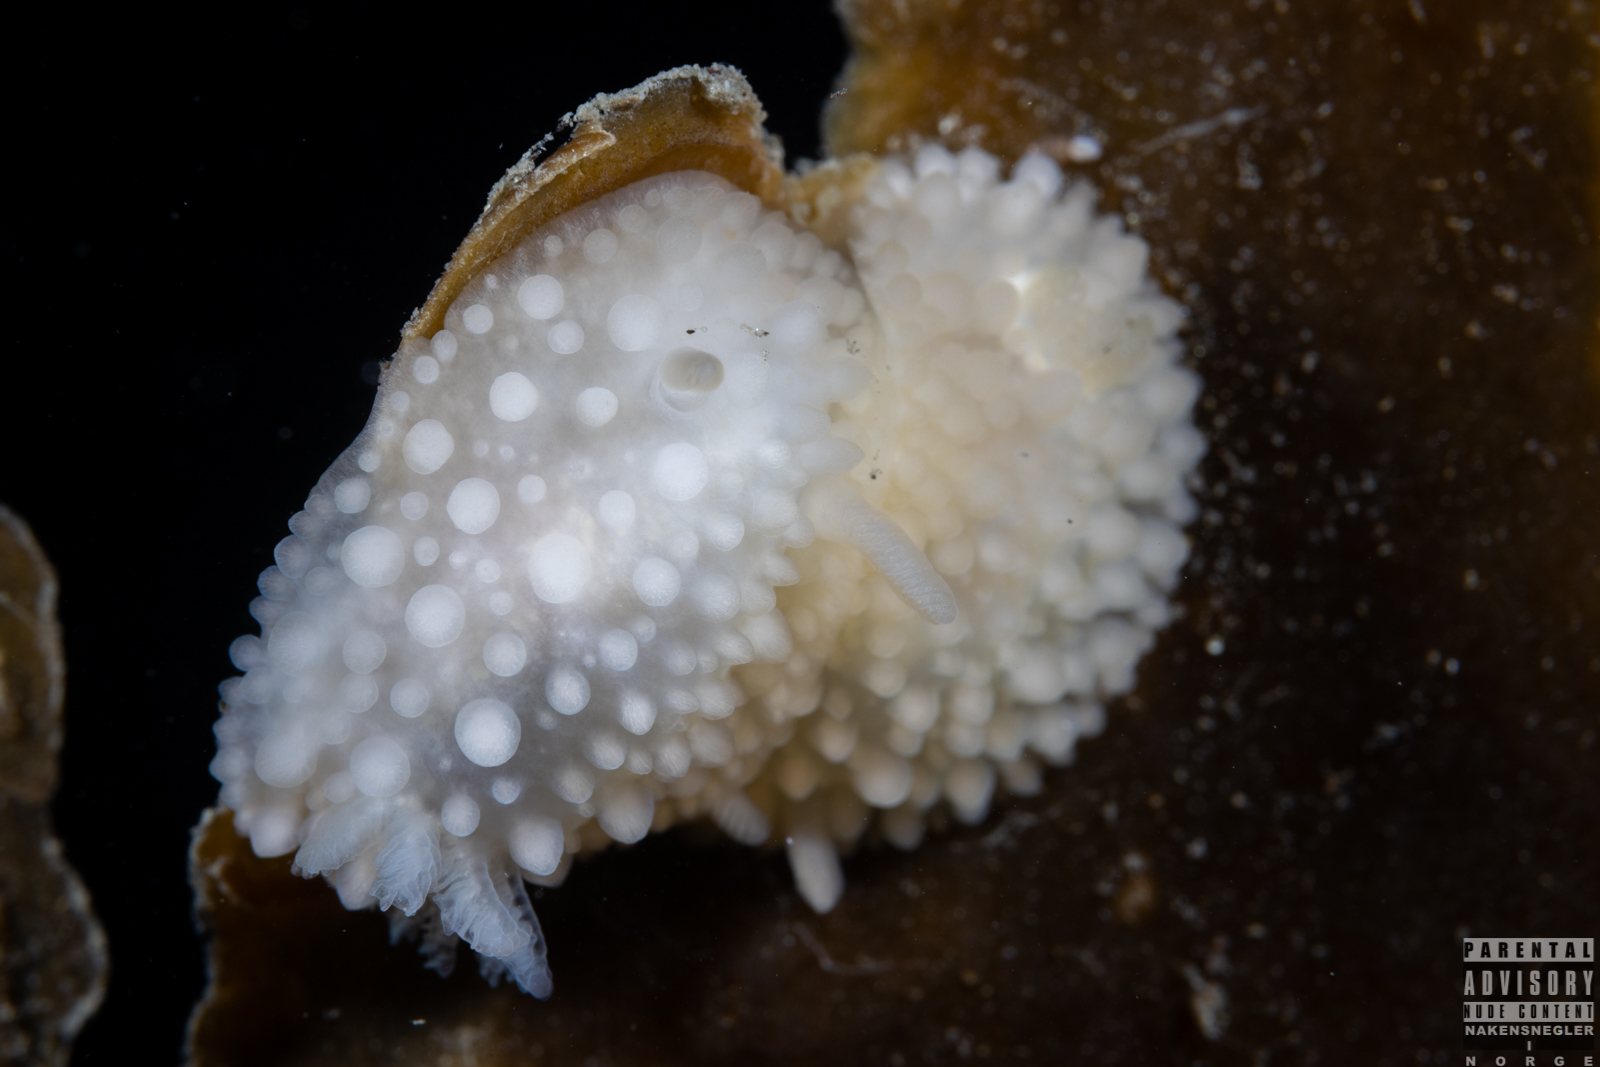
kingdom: Animalia
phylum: Mollusca
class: Gastropoda
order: Nudibranchia
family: Onchidorididae
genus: Adalaria
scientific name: Adalaria loveni
